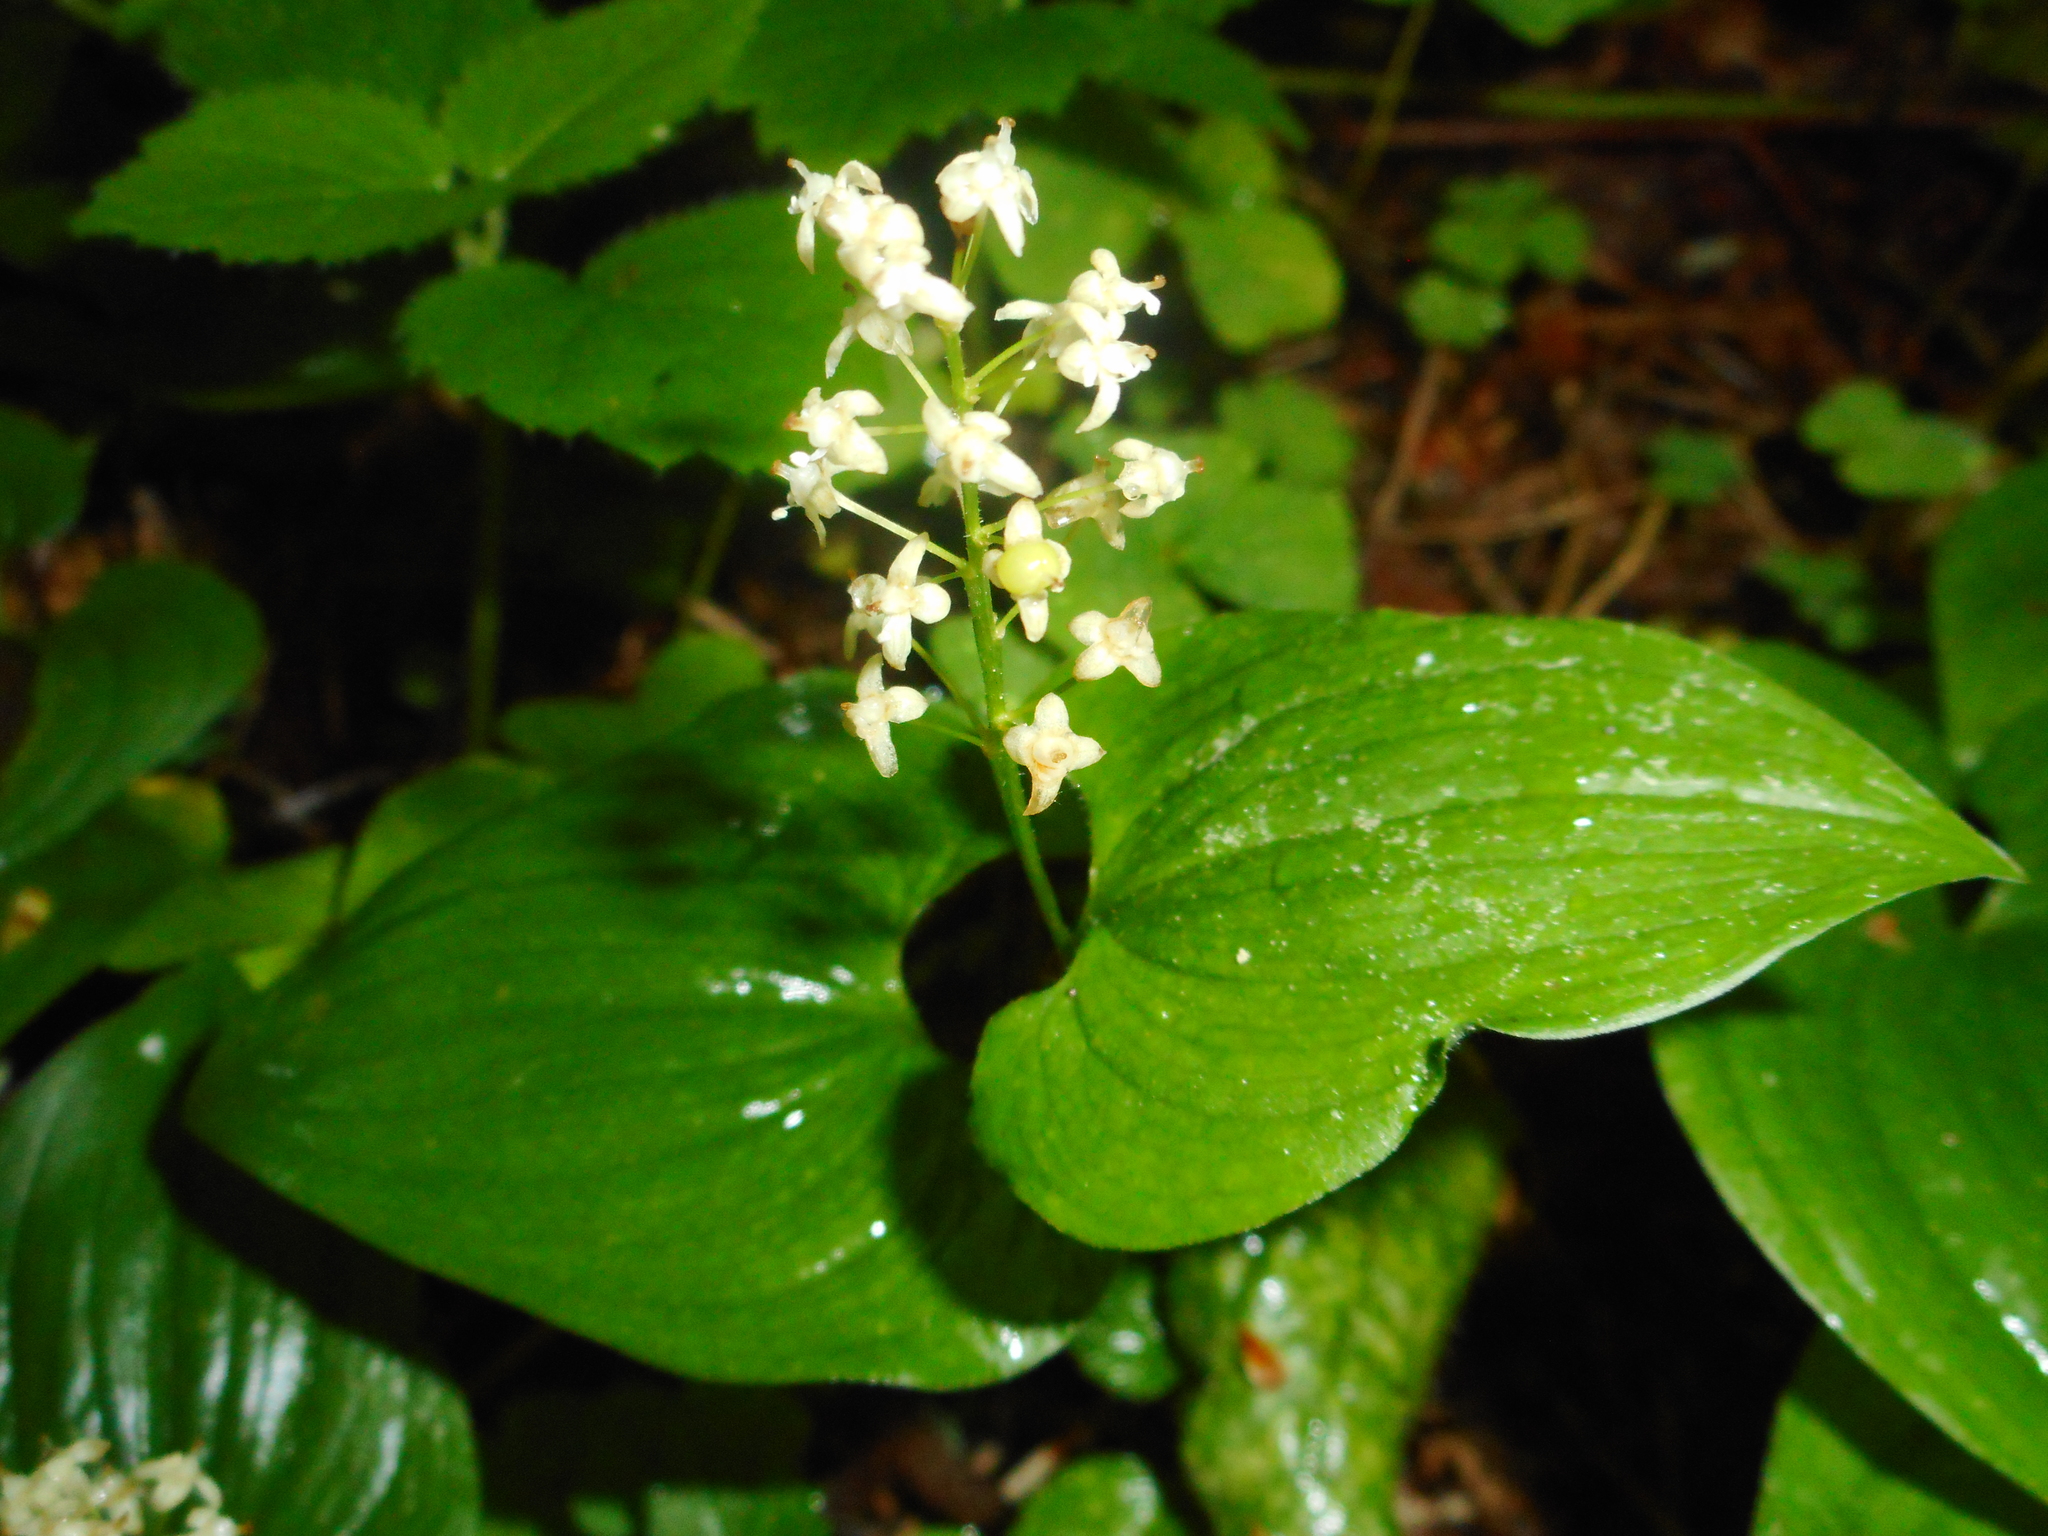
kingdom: Plantae
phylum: Tracheophyta
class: Liliopsida
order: Asparagales
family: Asparagaceae
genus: Maianthemum
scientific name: Maianthemum bifolium
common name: May lily
